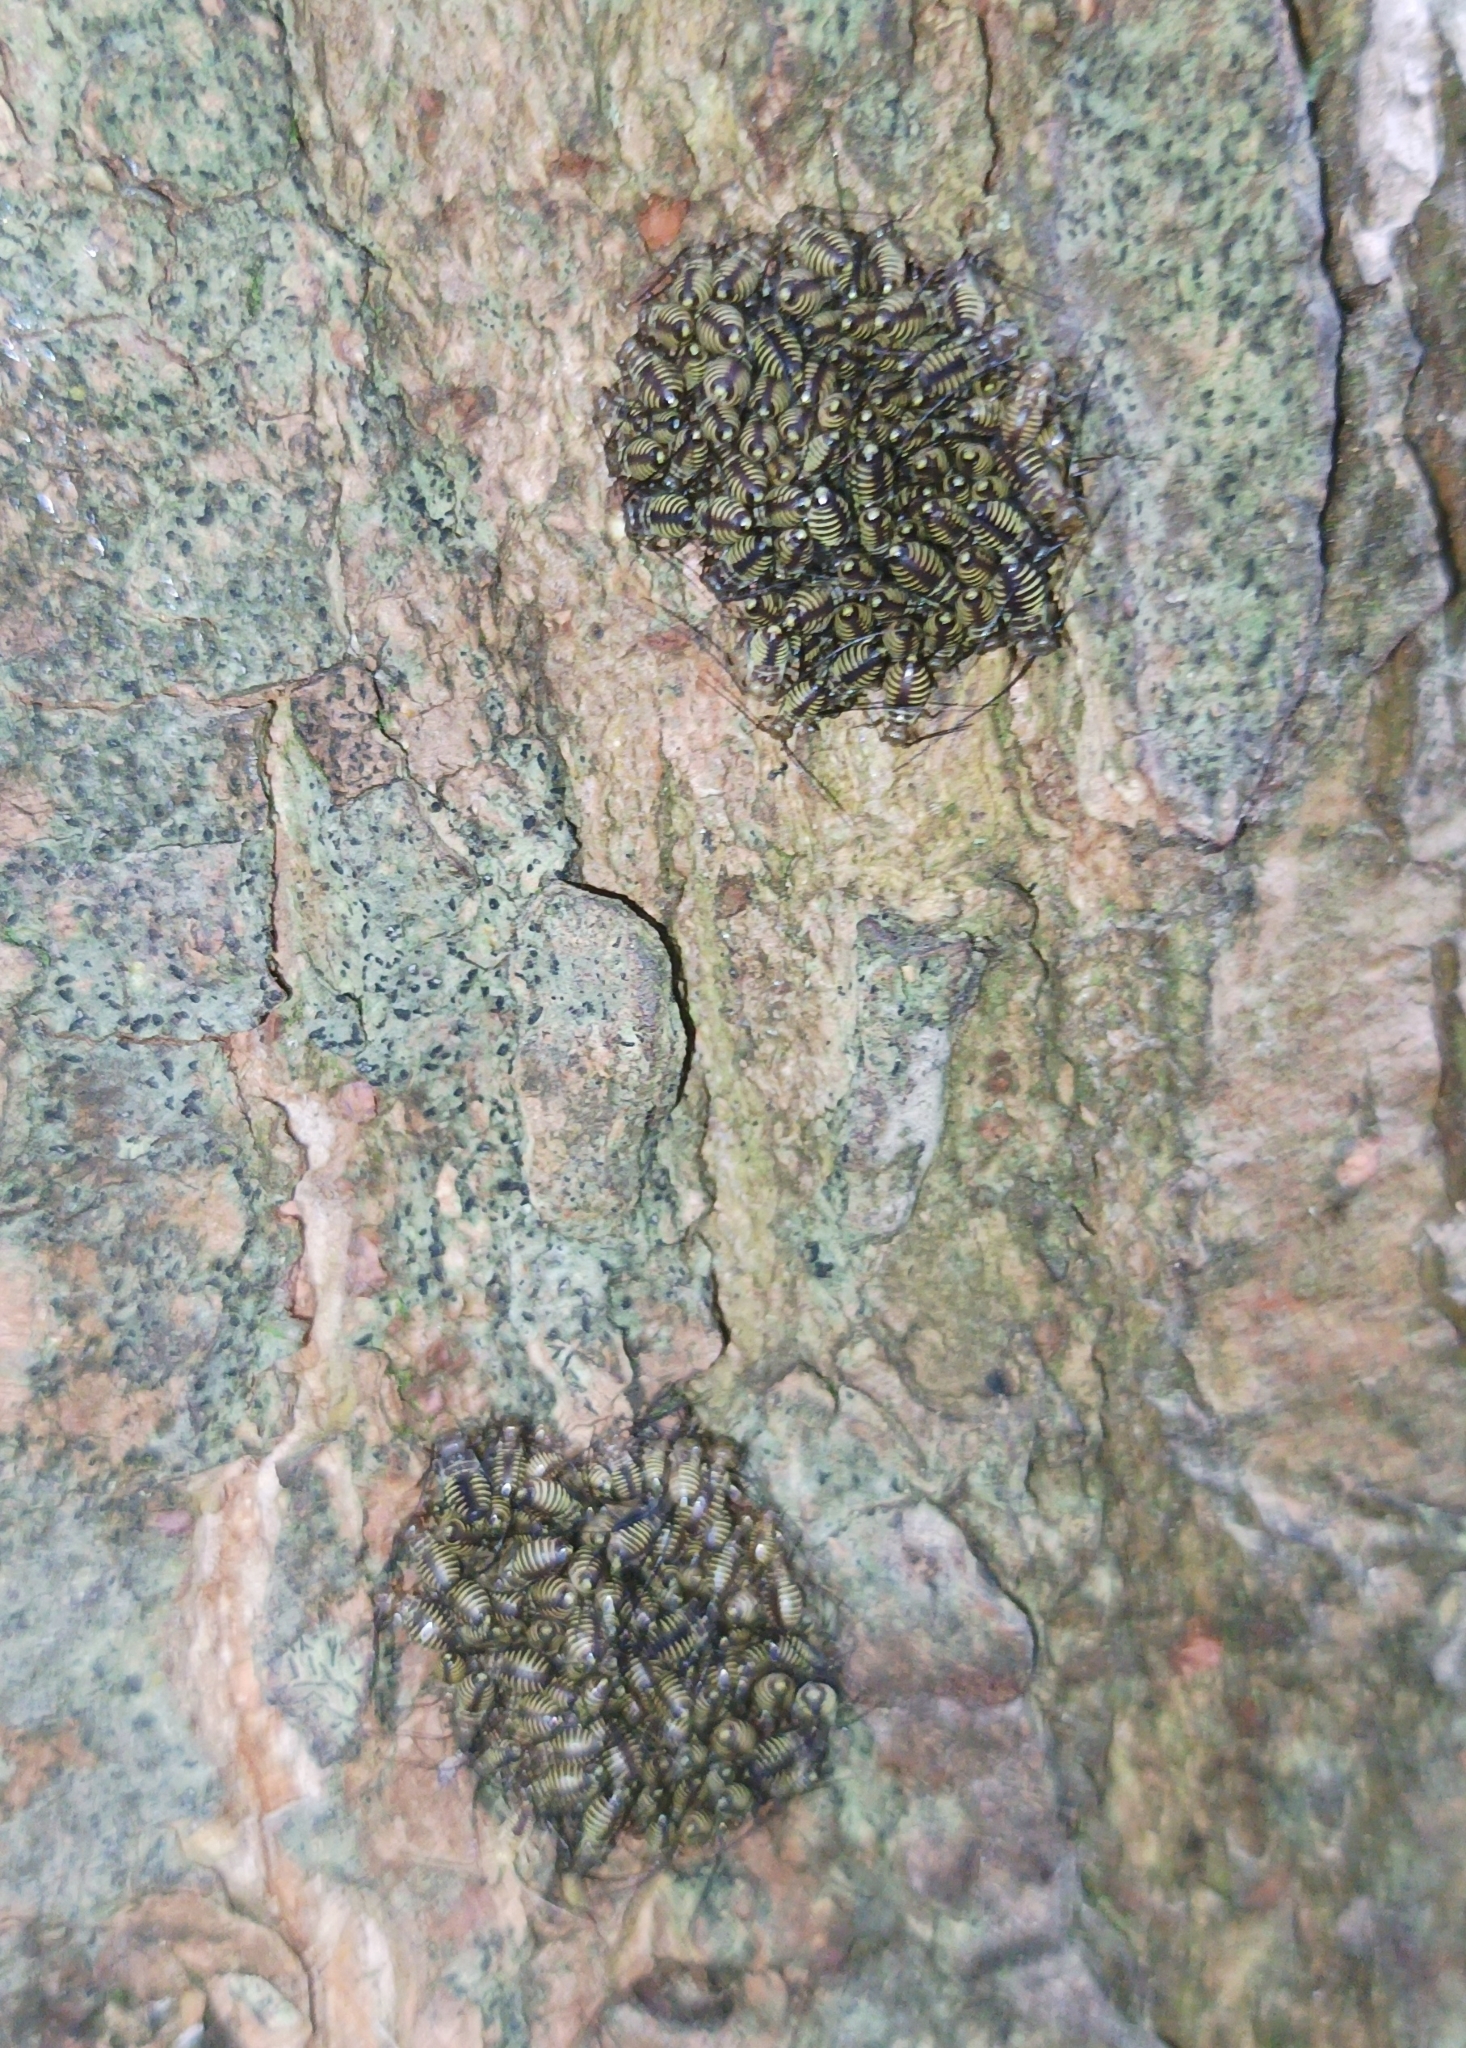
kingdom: Animalia
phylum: Arthropoda
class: Insecta
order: Psocodea
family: Psocidae
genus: Cerastipsocus
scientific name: Cerastipsocus venosus
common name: Tree cattle
